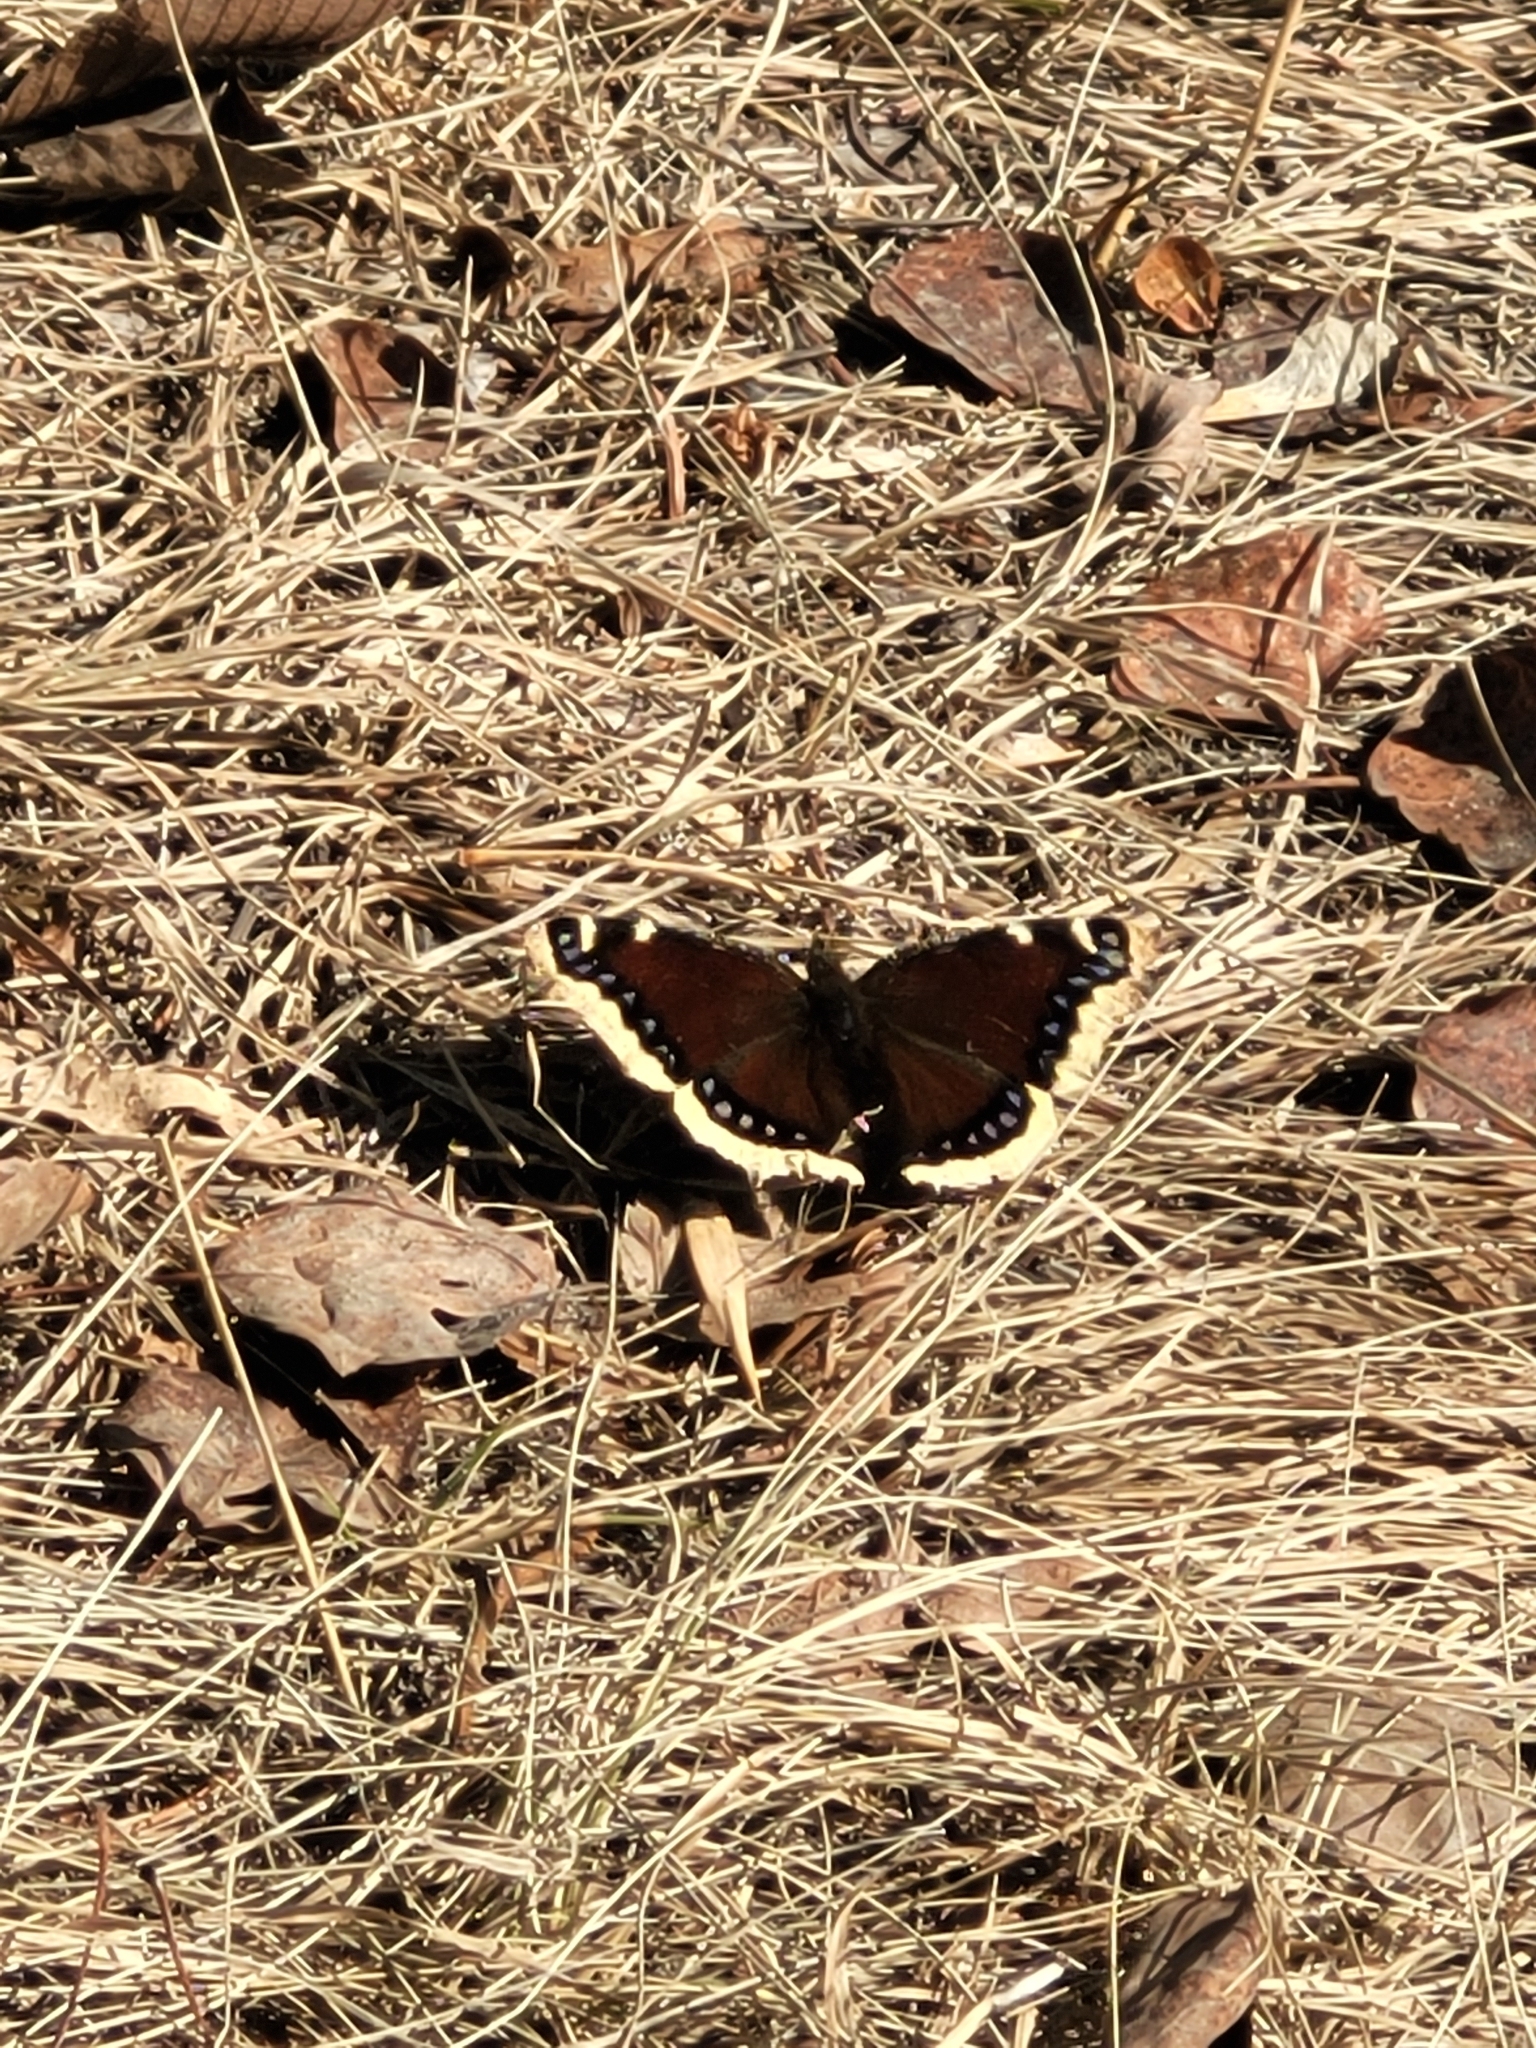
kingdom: Animalia
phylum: Arthropoda
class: Insecta
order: Lepidoptera
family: Nymphalidae
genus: Nymphalis
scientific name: Nymphalis antiopa
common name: Camberwell beauty
